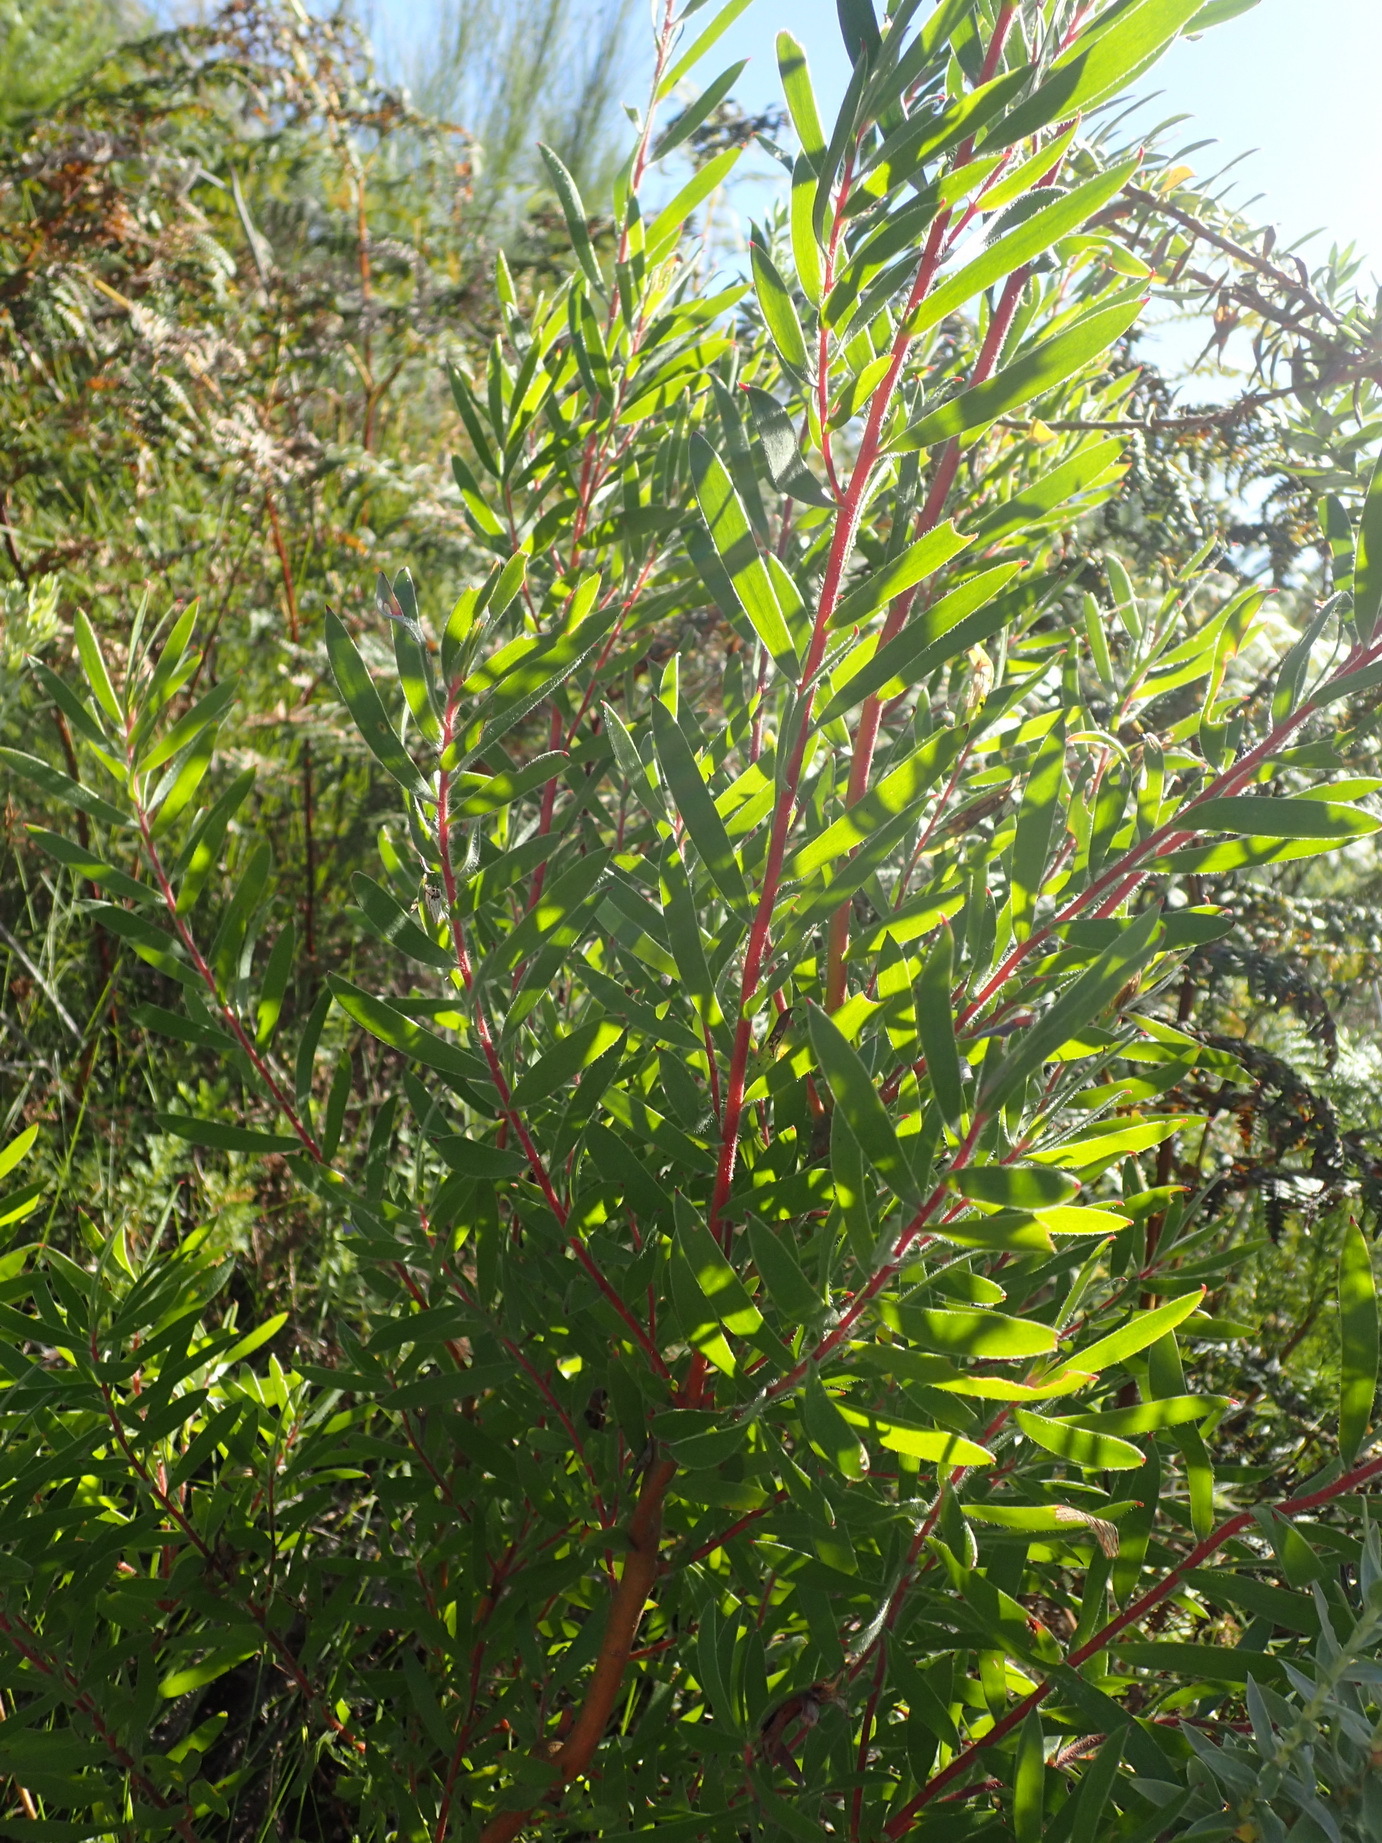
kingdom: Plantae
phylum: Tracheophyta
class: Magnoliopsida
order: Proteales
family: Proteaceae
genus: Leucadendron
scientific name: Leucadendron conicum
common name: Garden route conebush
